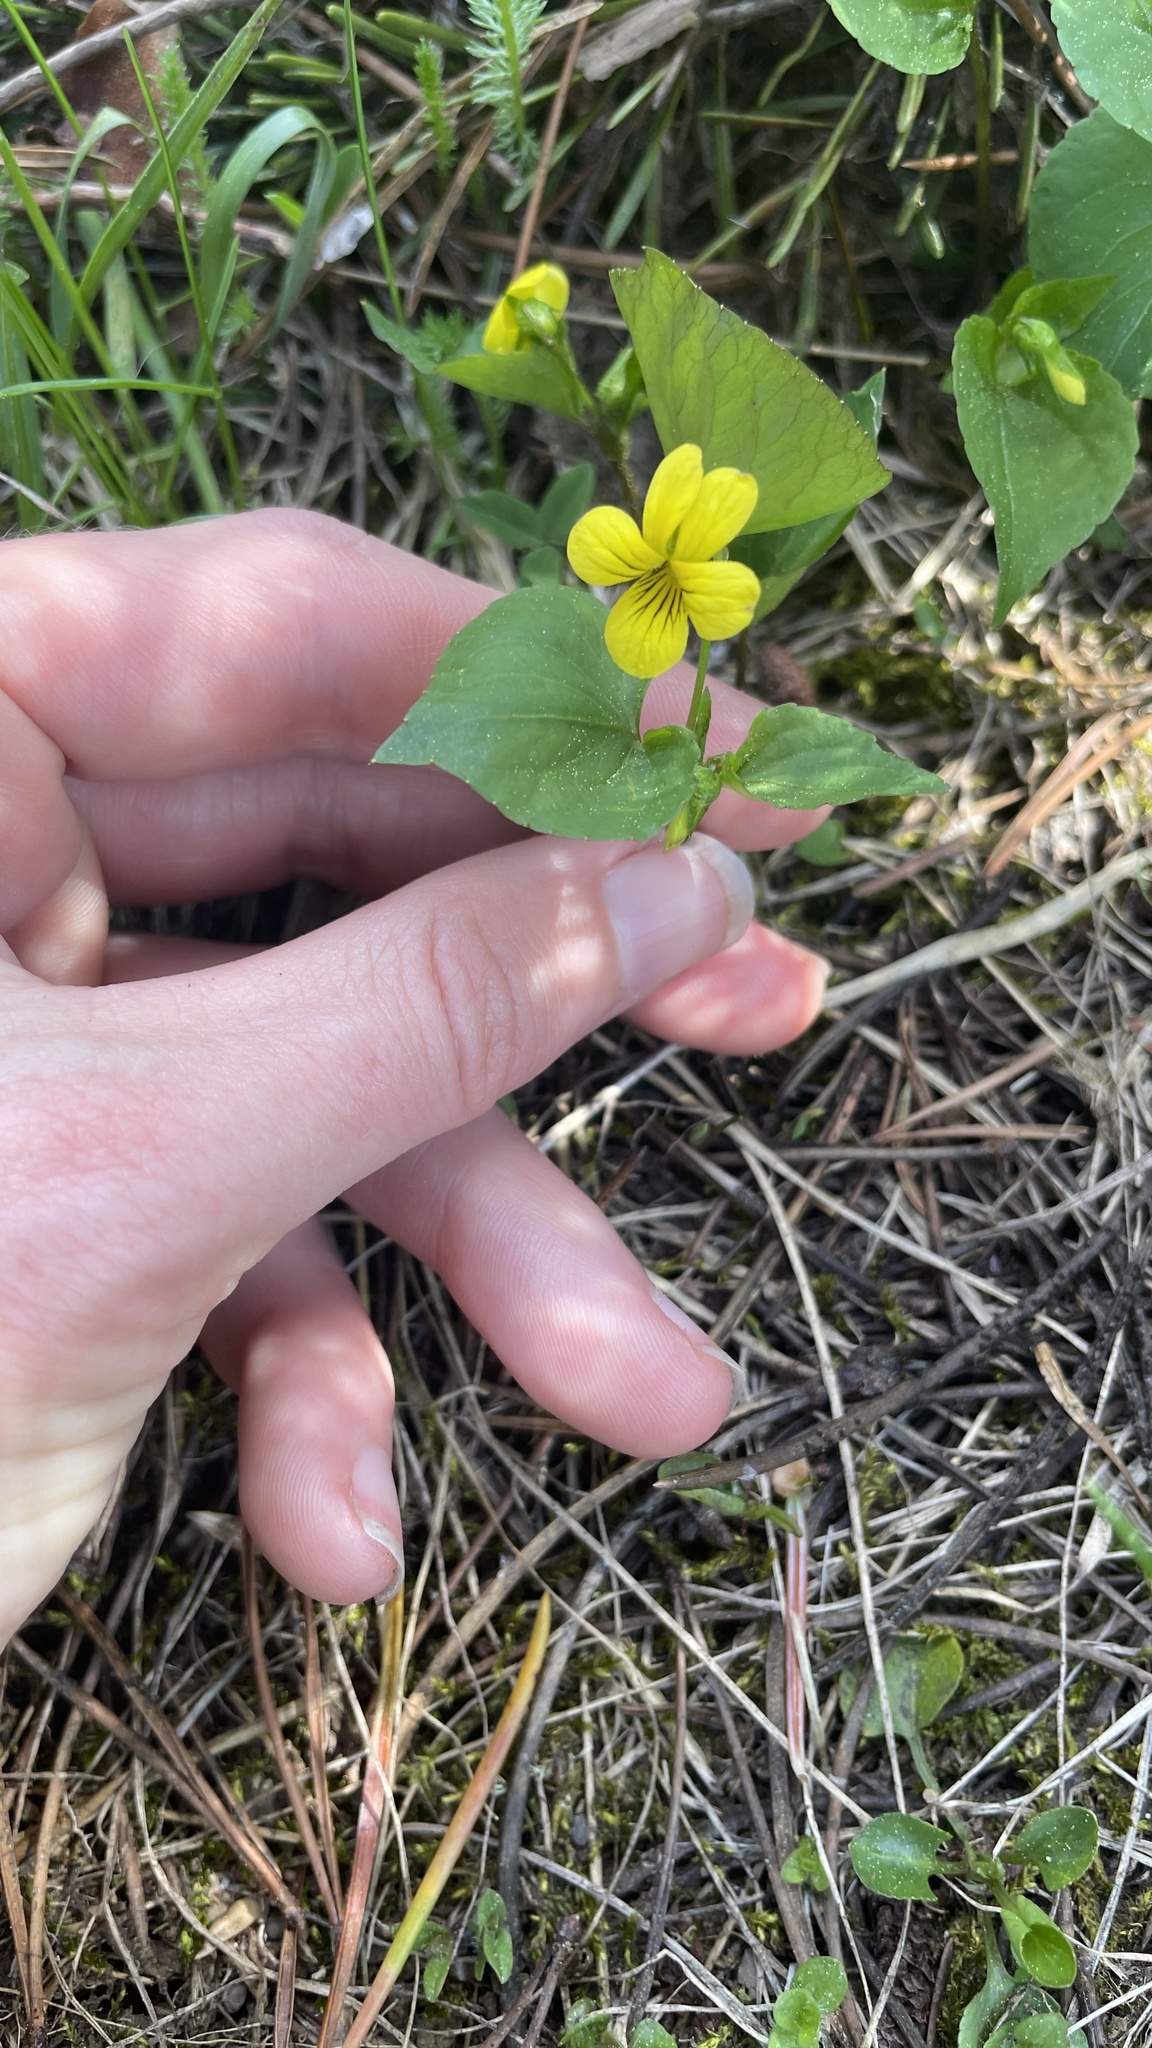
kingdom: Plantae
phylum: Tracheophyta
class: Magnoliopsida
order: Malpighiales
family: Violaceae
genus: Viola
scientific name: Viola glabella
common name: Stream violet
